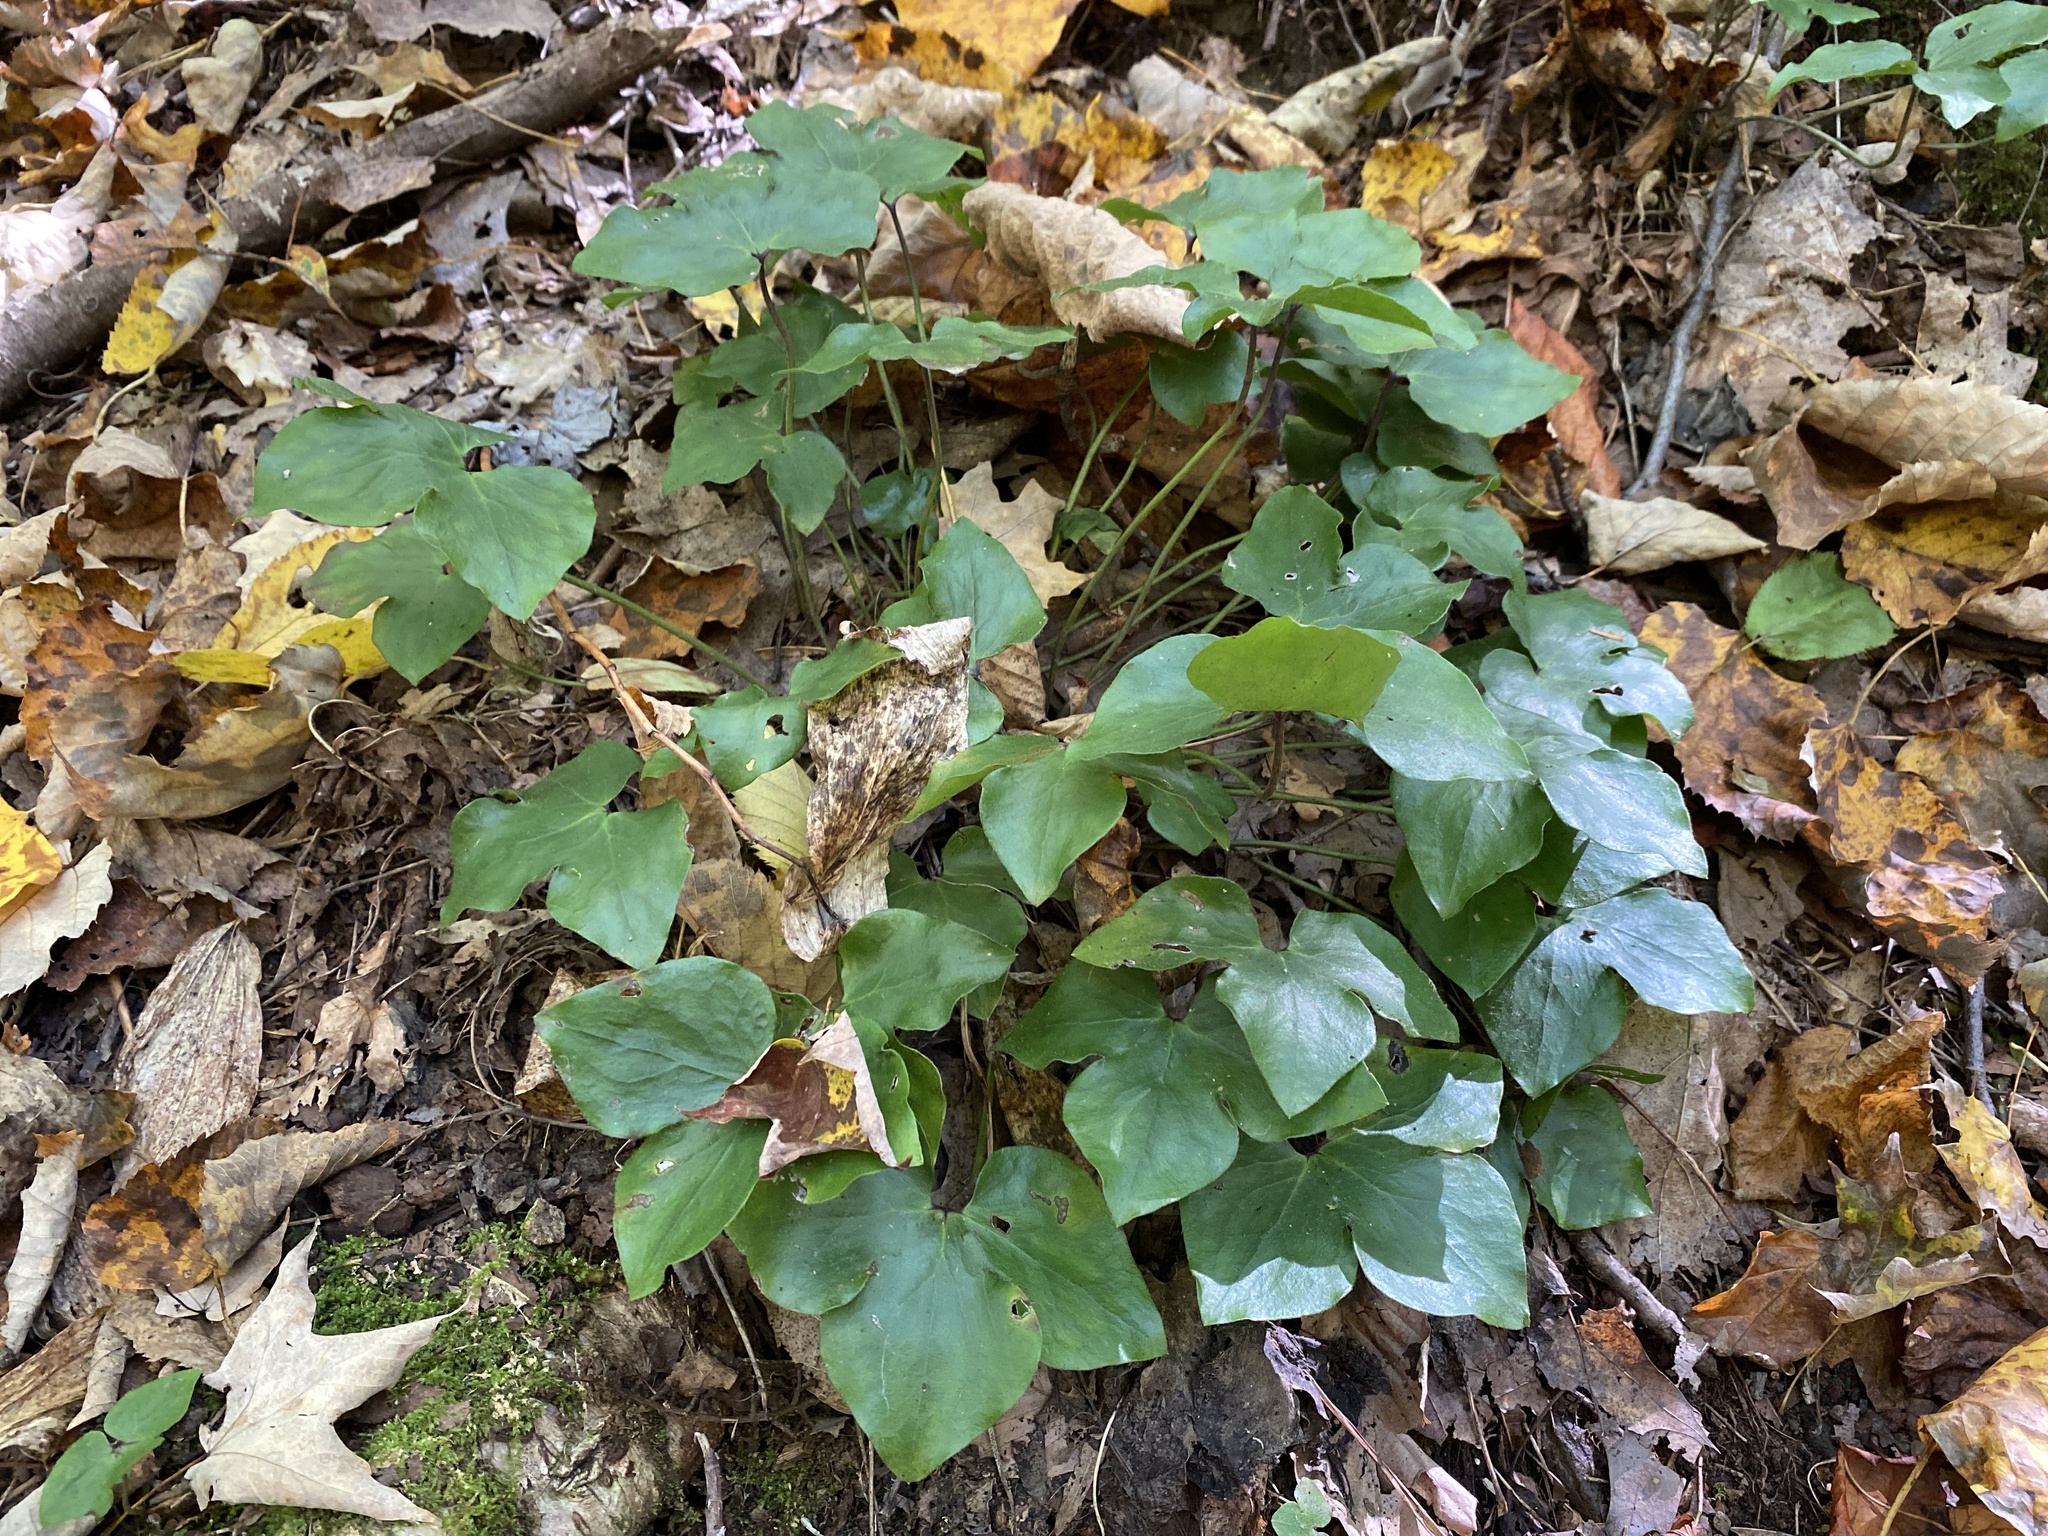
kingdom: Plantae
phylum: Tracheophyta
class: Magnoliopsida
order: Ranunculales
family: Ranunculaceae
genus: Hepatica
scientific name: Hepatica acutiloba
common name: Sharp-lobed hepatica
